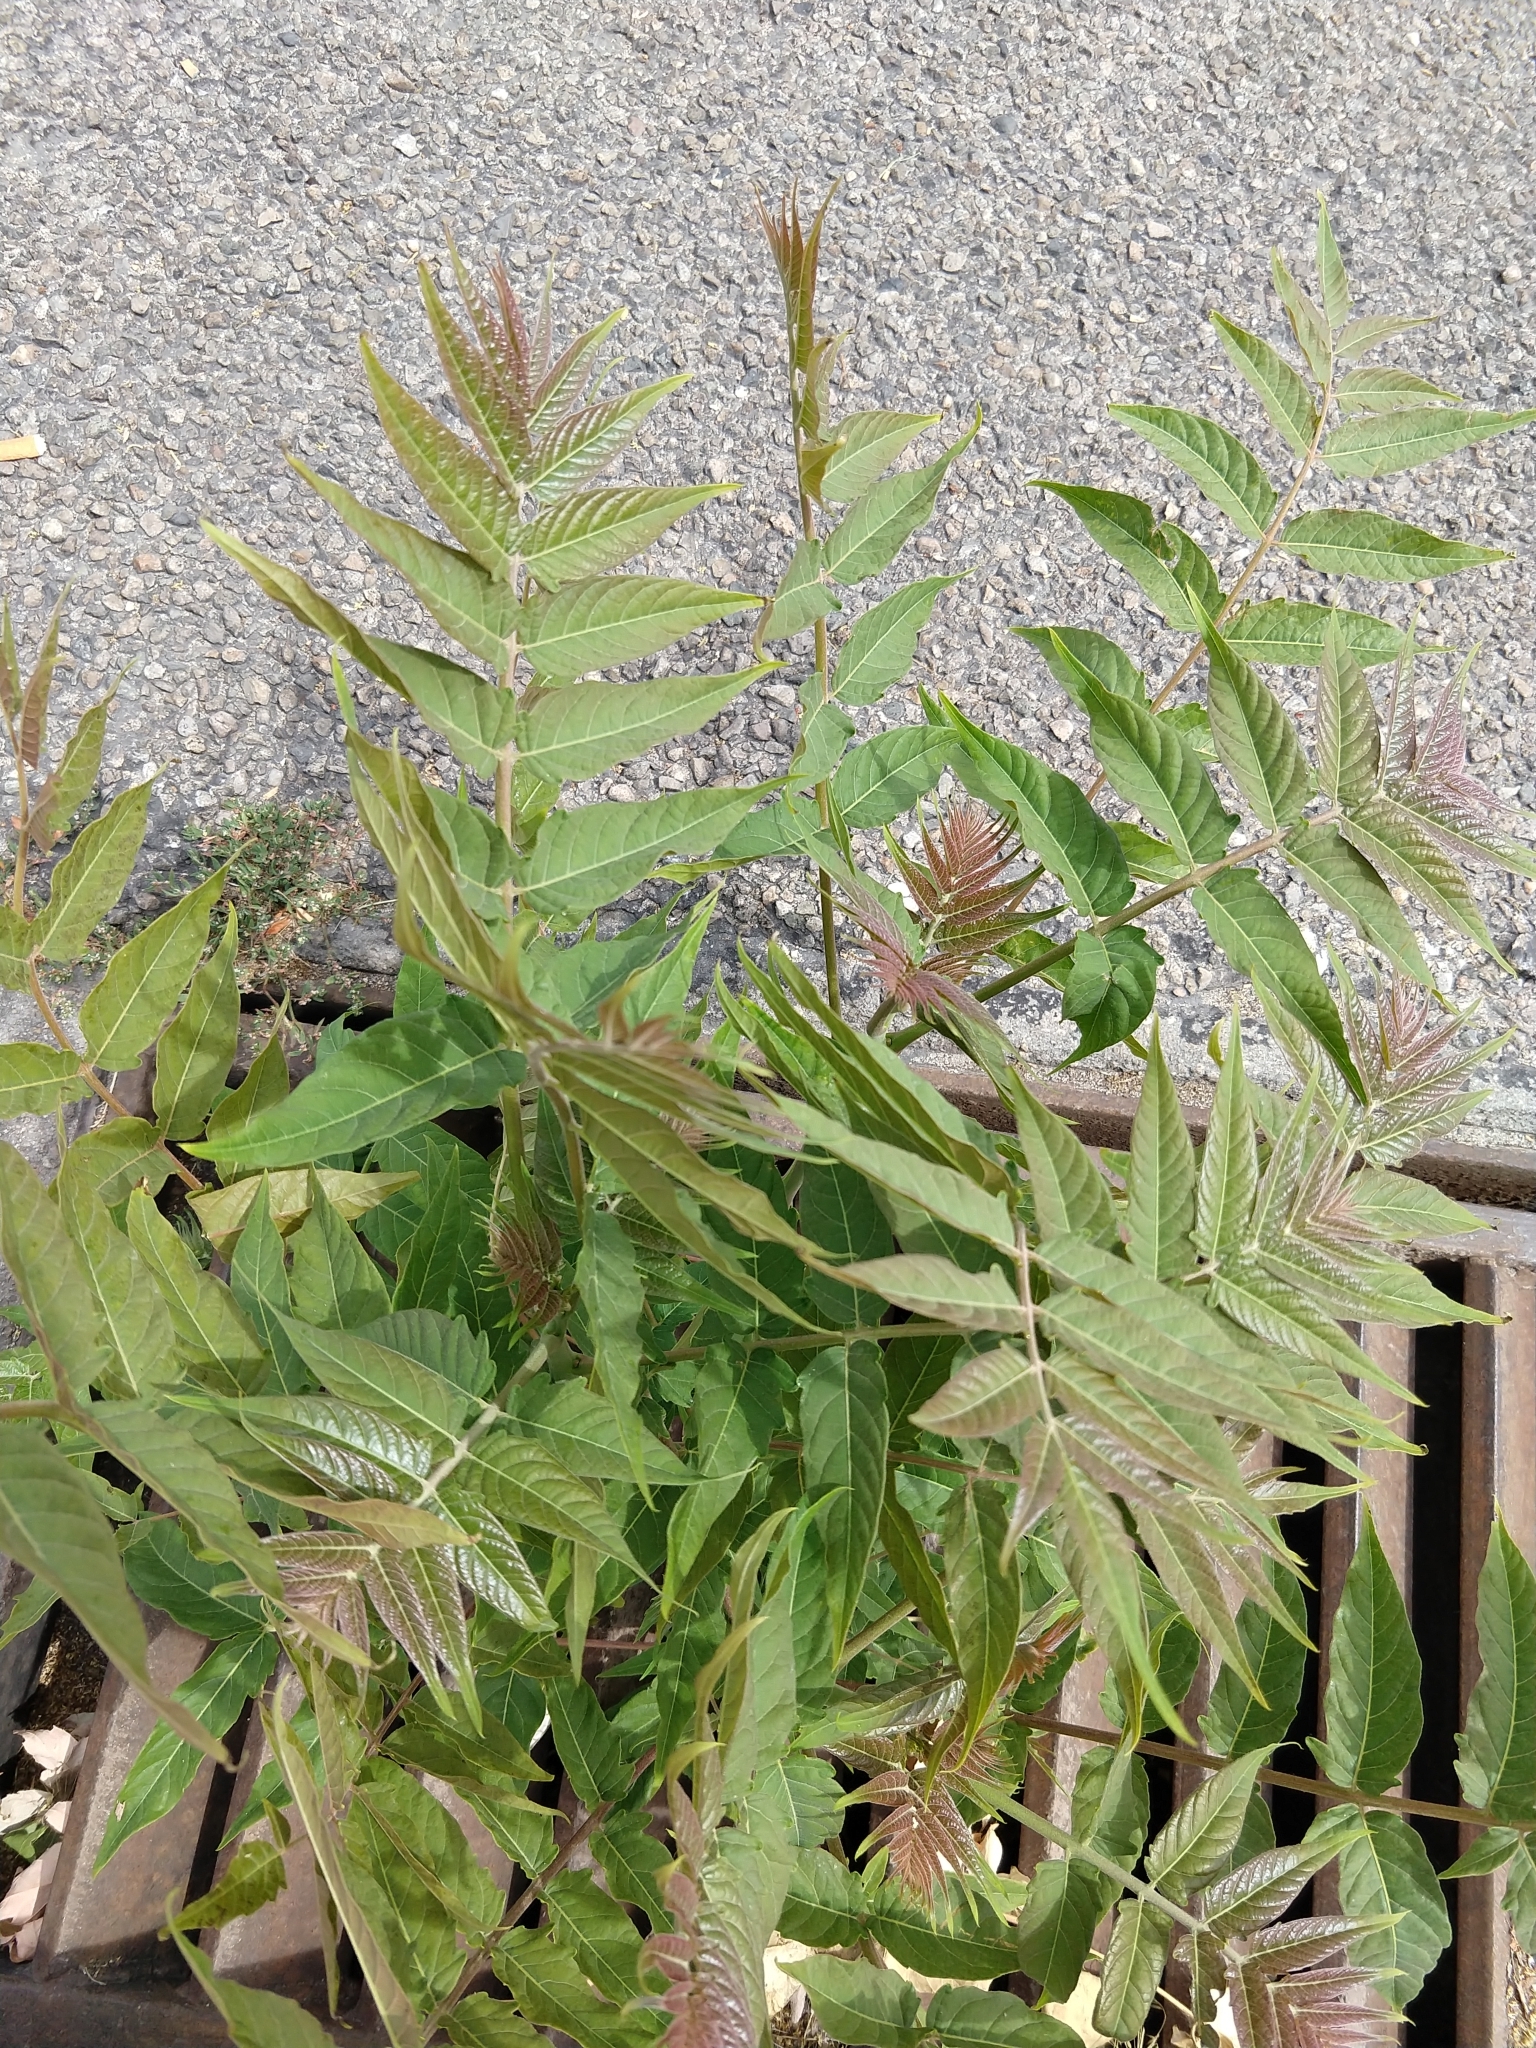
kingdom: Plantae
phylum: Tracheophyta
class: Magnoliopsida
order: Sapindales
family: Simaroubaceae
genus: Ailanthus
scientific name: Ailanthus altissima
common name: Tree-of-heaven
